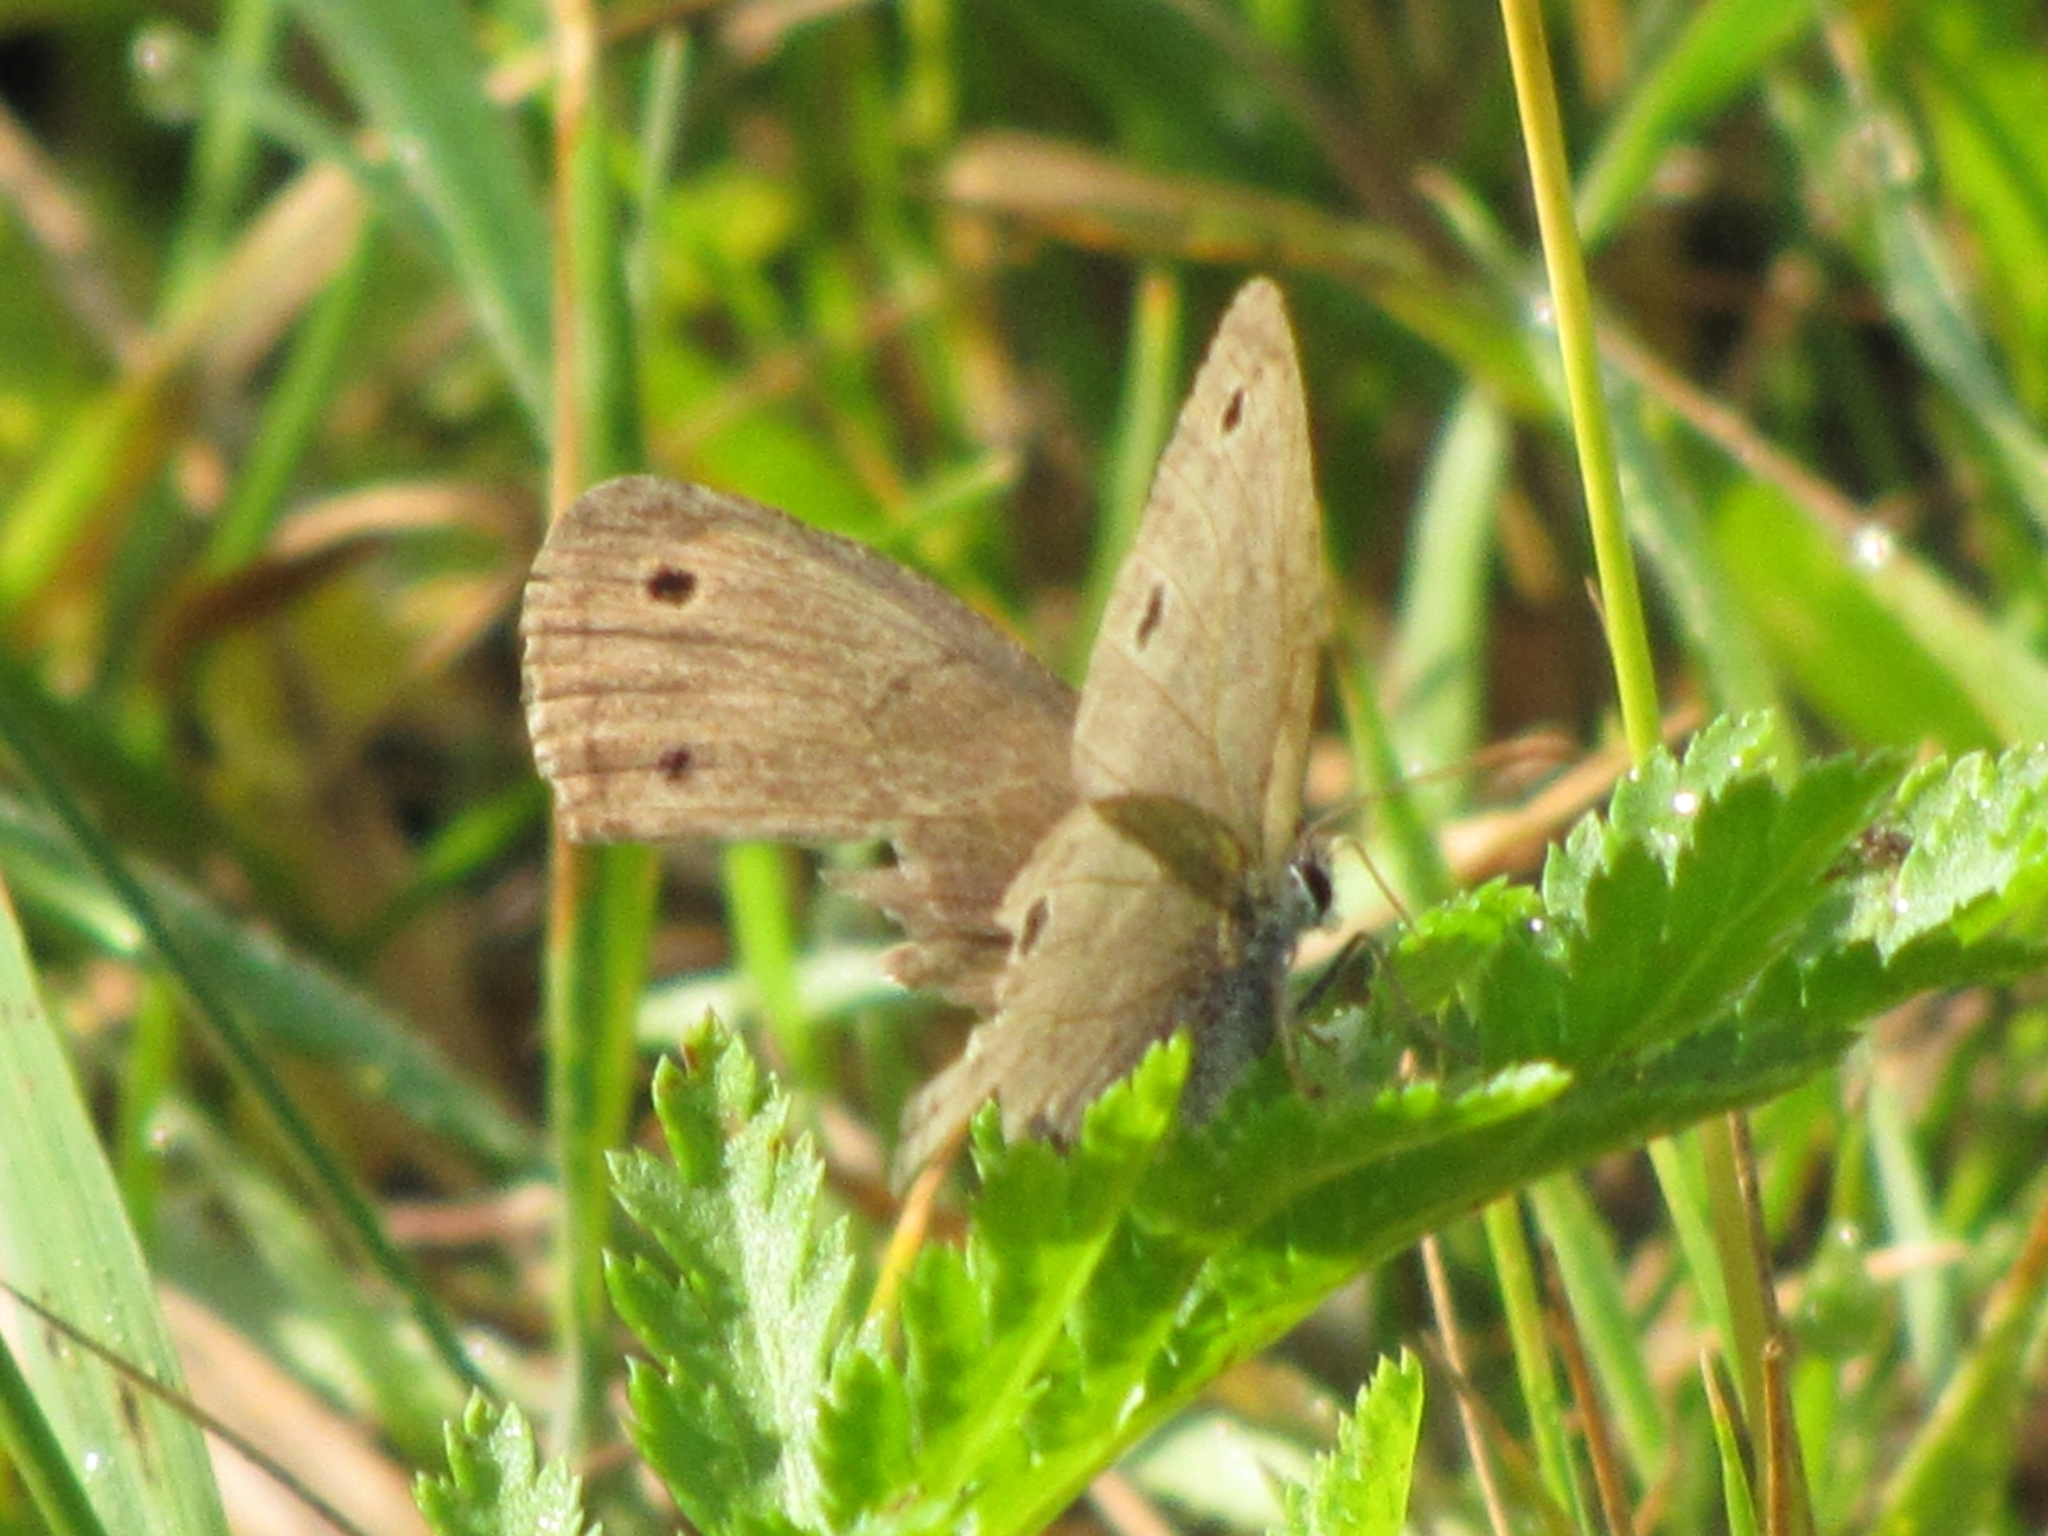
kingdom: Animalia
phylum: Arthropoda
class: Insecta
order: Lepidoptera
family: Nymphalidae
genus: Euptychia
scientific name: Euptychia cymela
